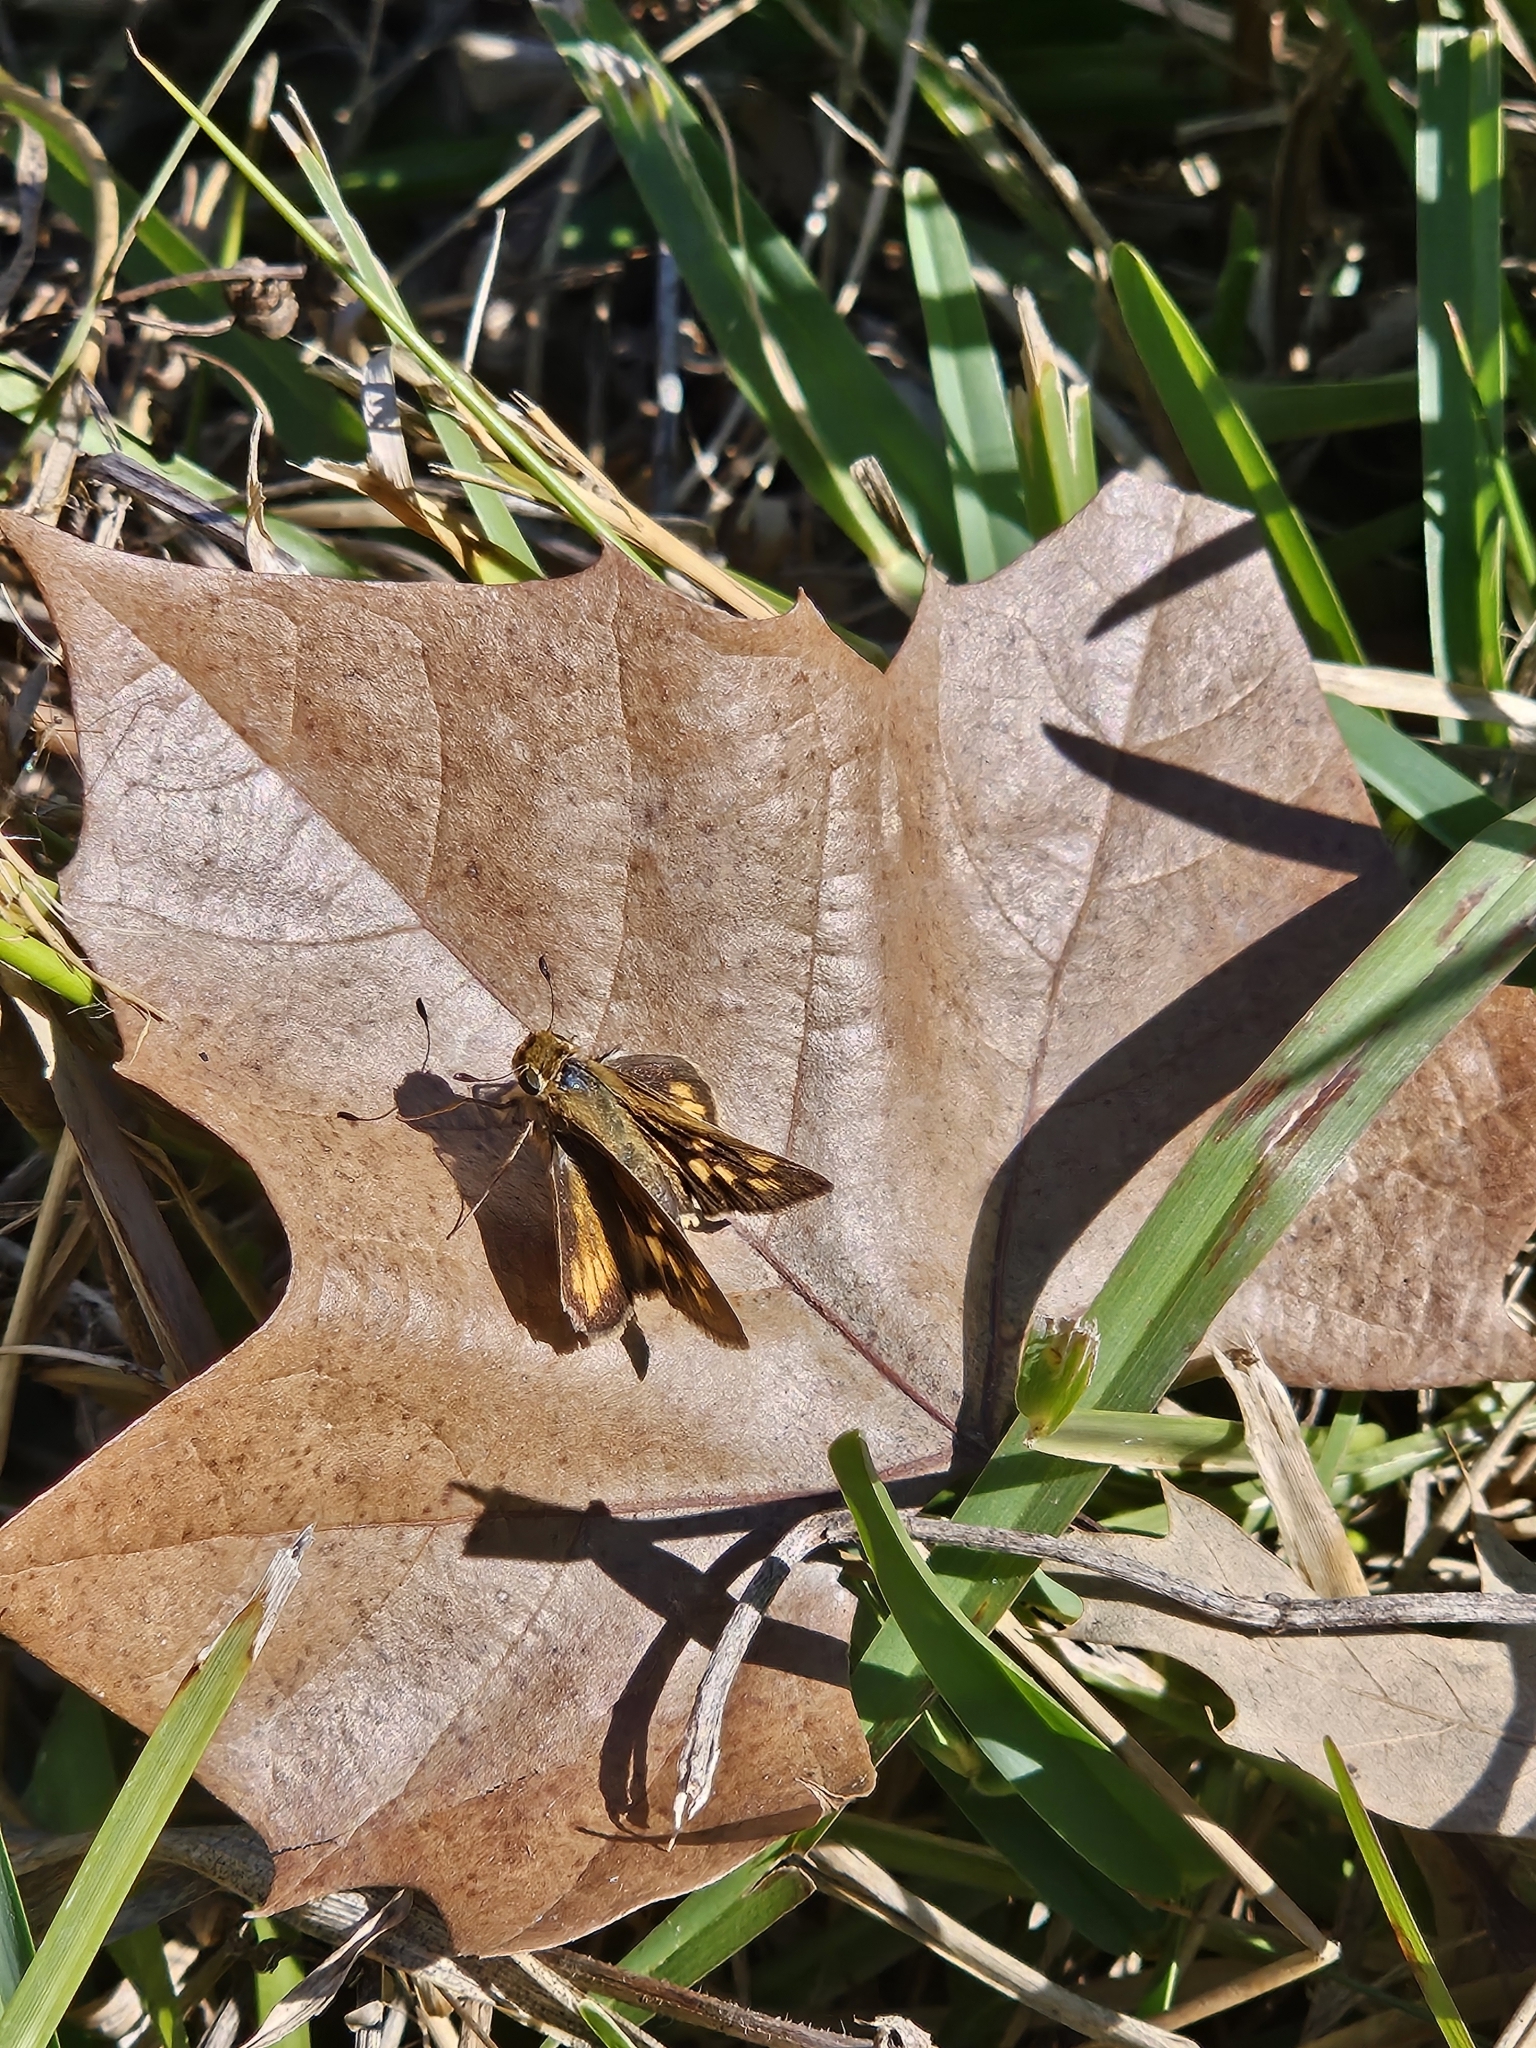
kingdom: Animalia
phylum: Arthropoda
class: Insecta
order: Lepidoptera
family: Hesperiidae
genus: Hylephila
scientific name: Hylephila phyleus
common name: Fiery skipper
